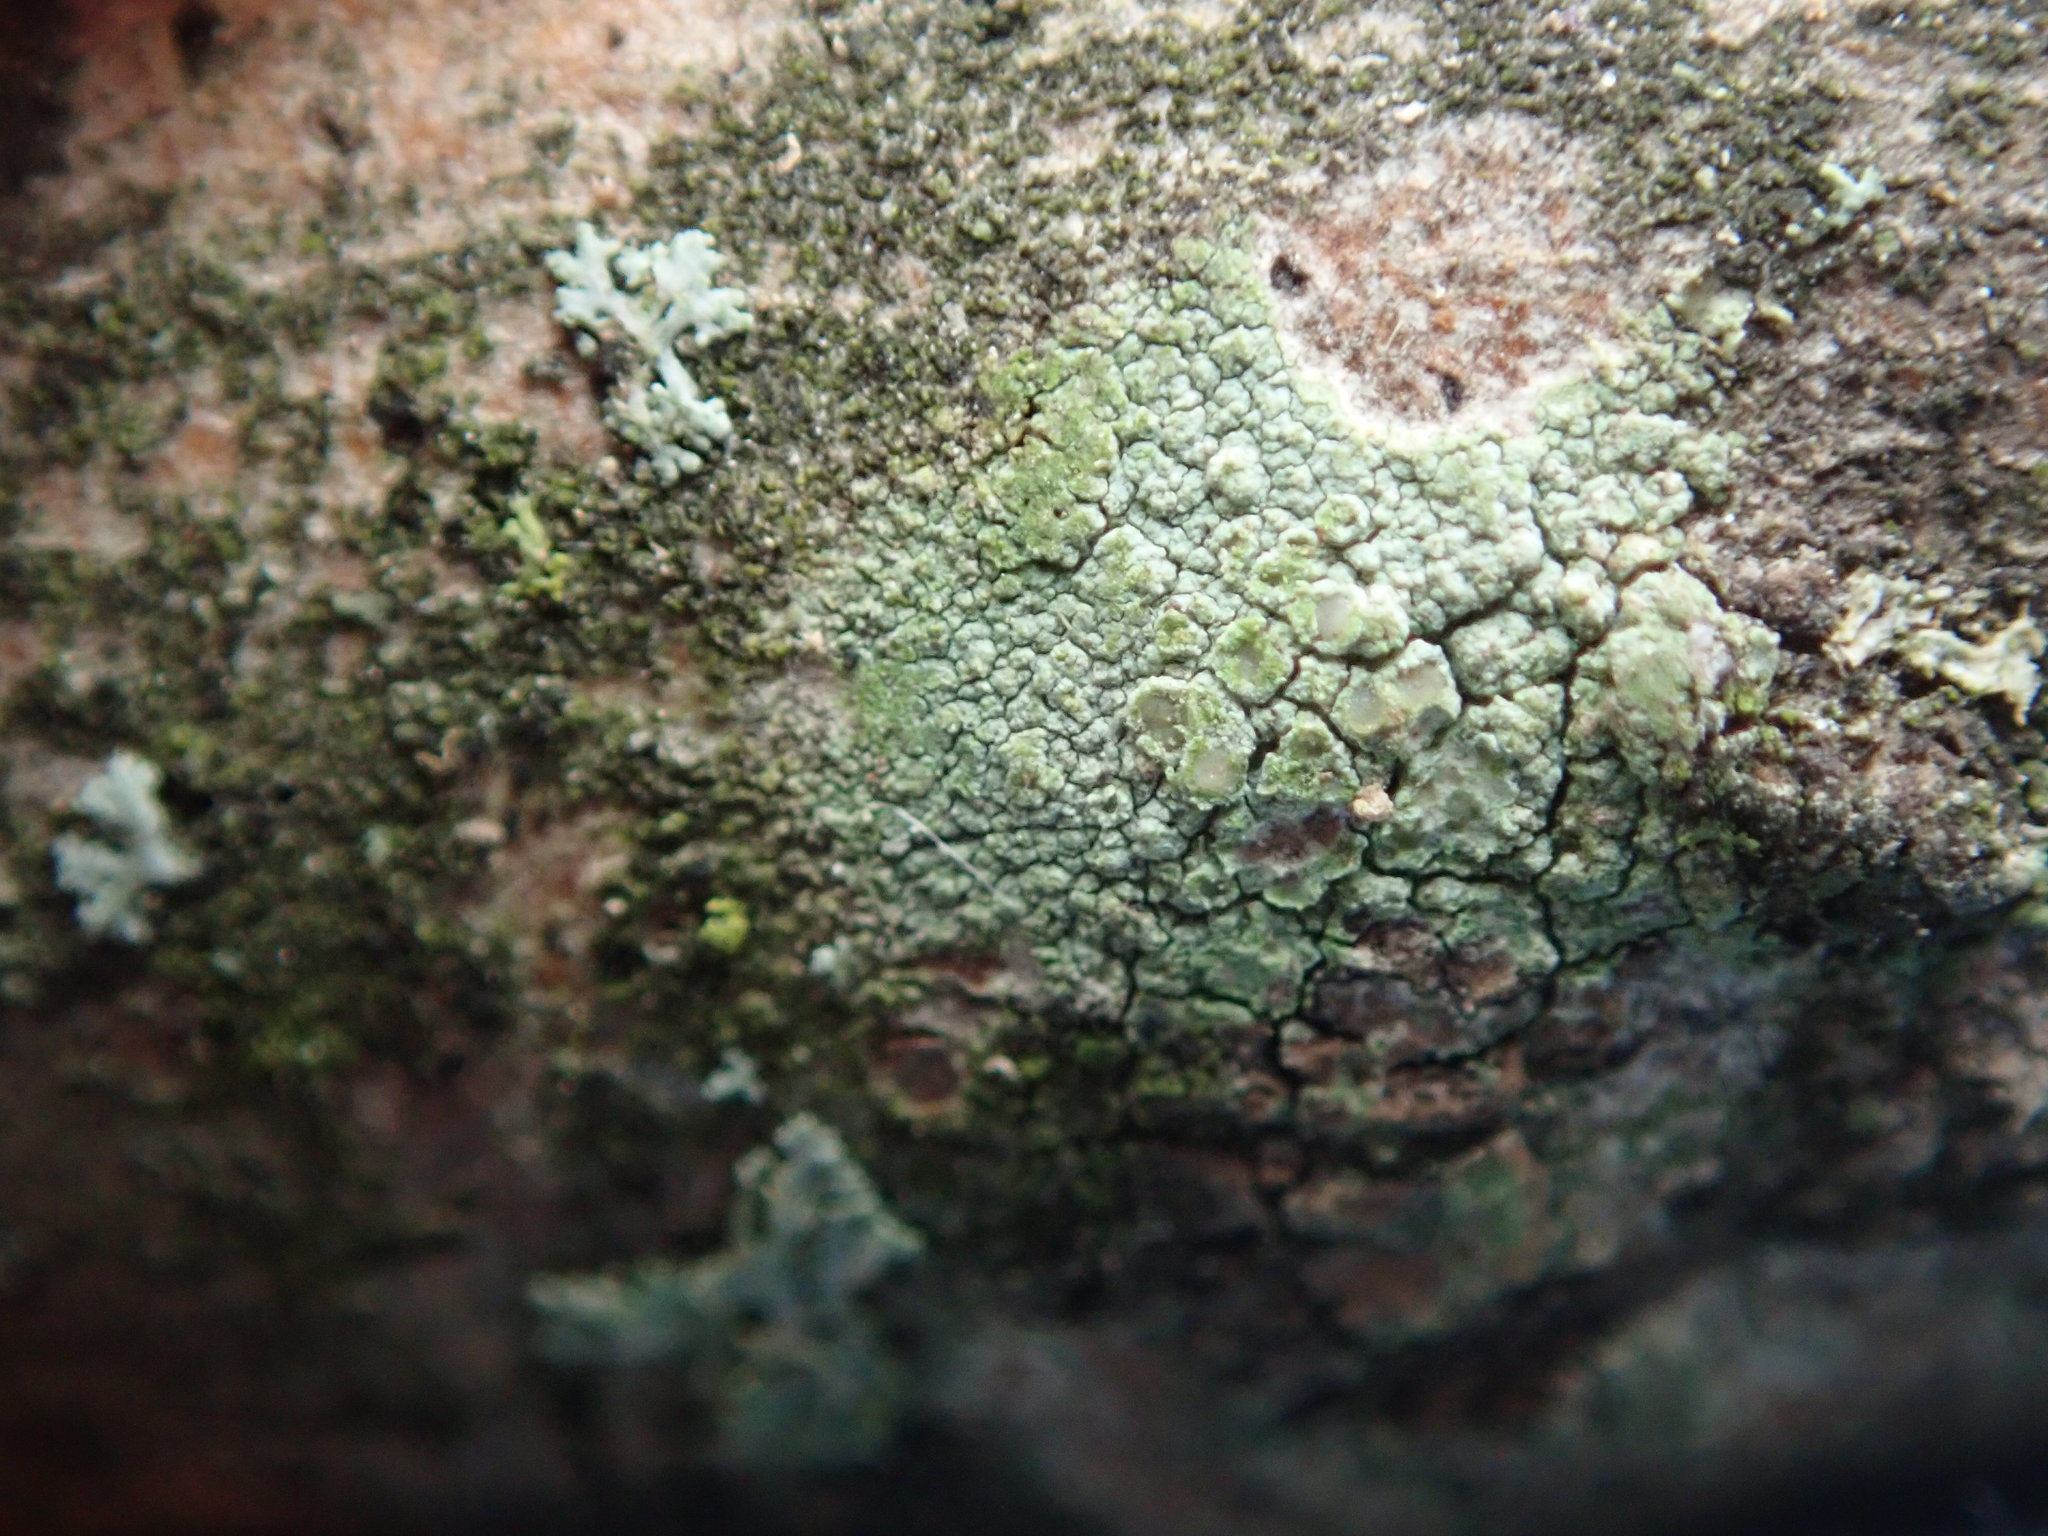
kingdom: Fungi
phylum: Ascomycota
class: Lecanoromycetes
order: Lecanorales
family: Lecanoraceae
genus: Lecanora
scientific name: Lecanora strobilina
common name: Mealy rim-lichen
